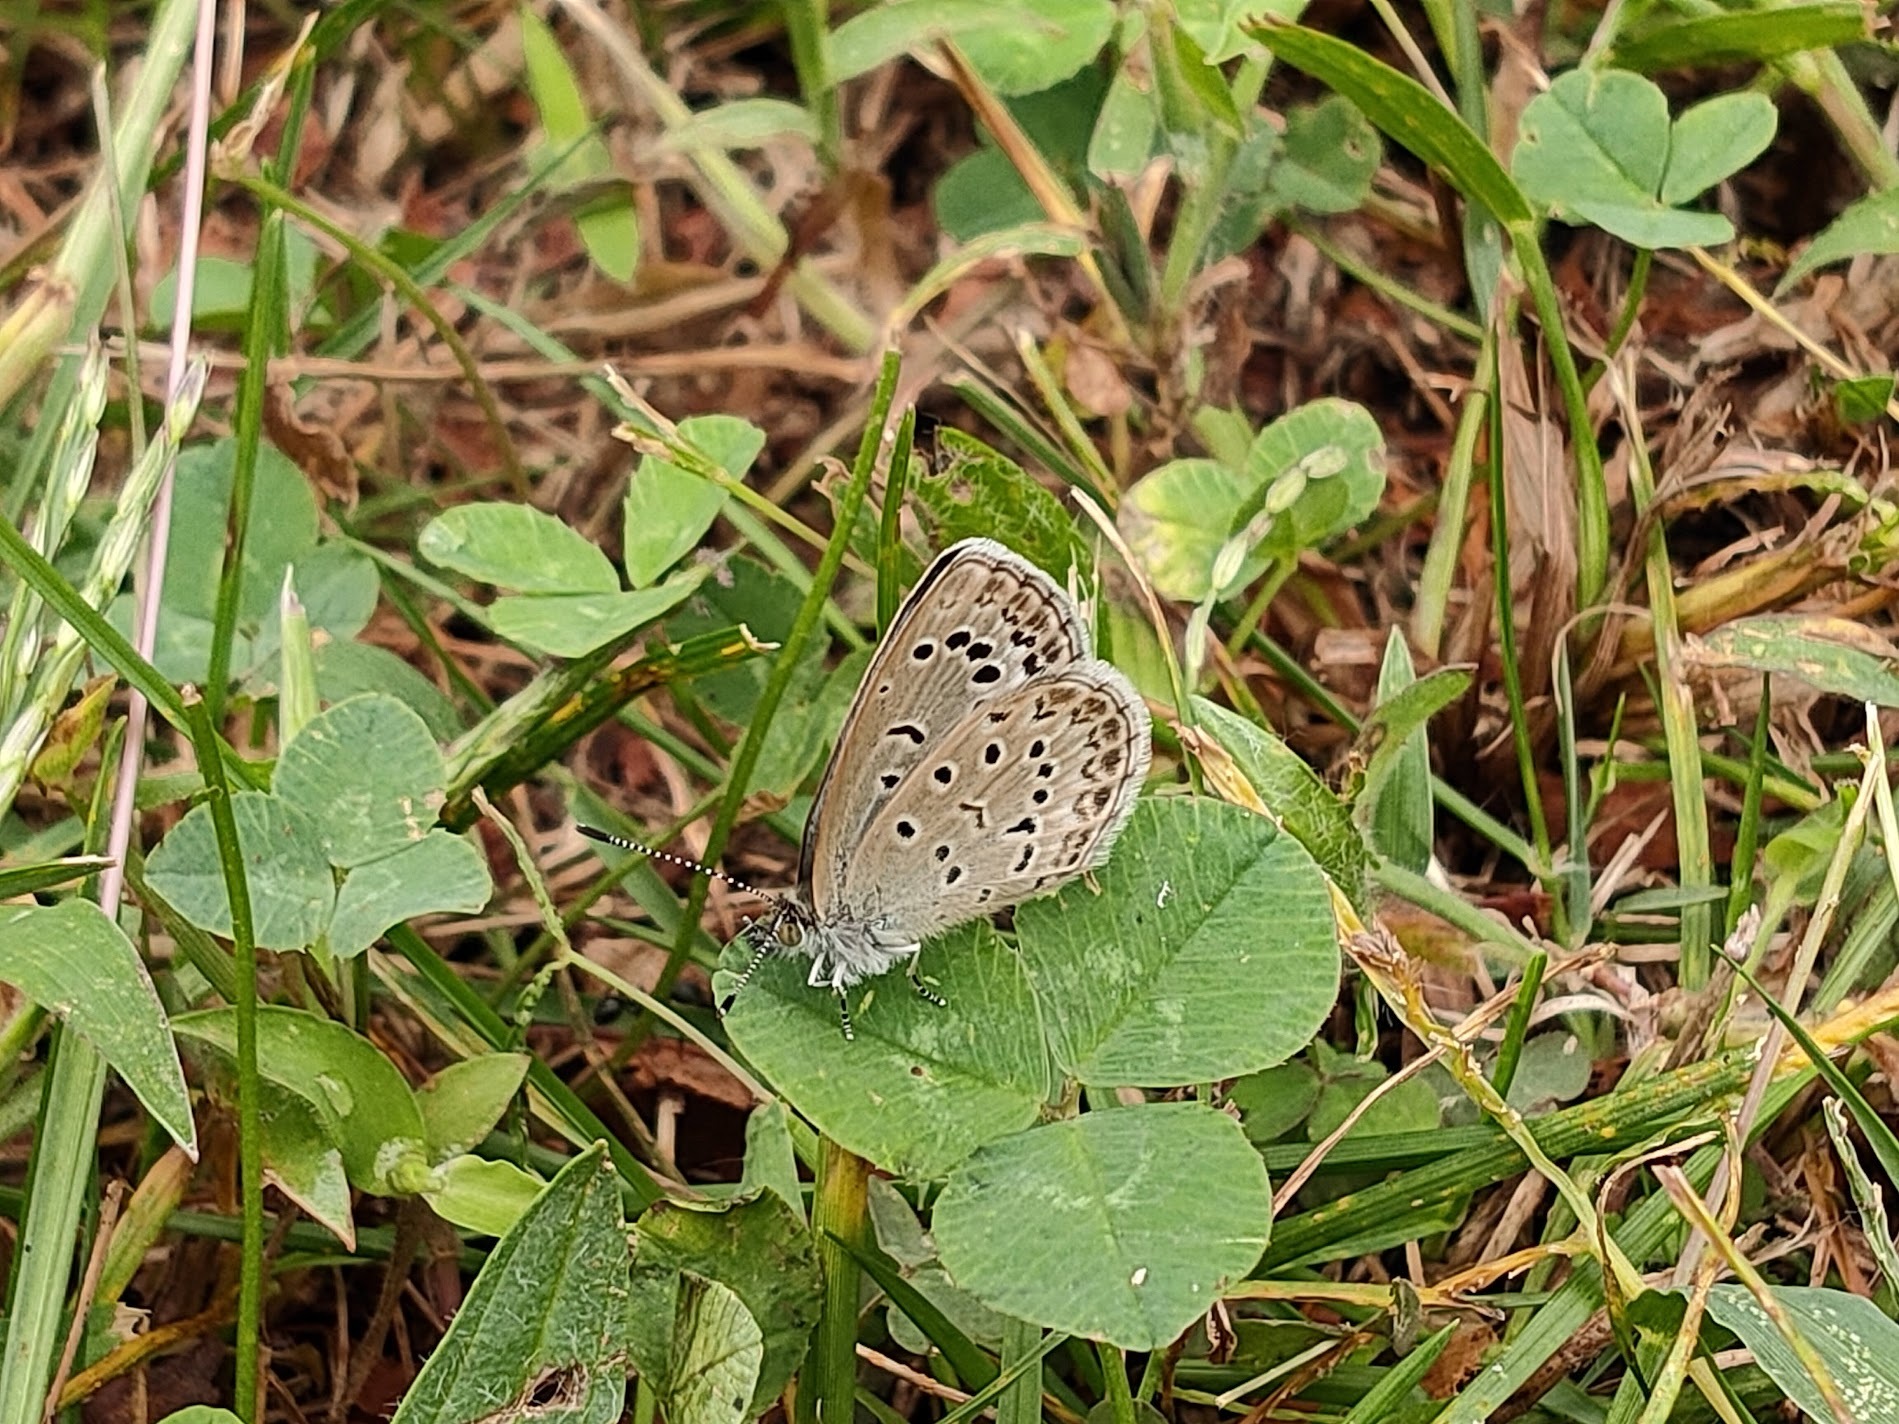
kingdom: Animalia
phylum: Arthropoda
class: Insecta
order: Lepidoptera
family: Lycaenidae
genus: Pseudozizeeria
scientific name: Pseudozizeeria maha
